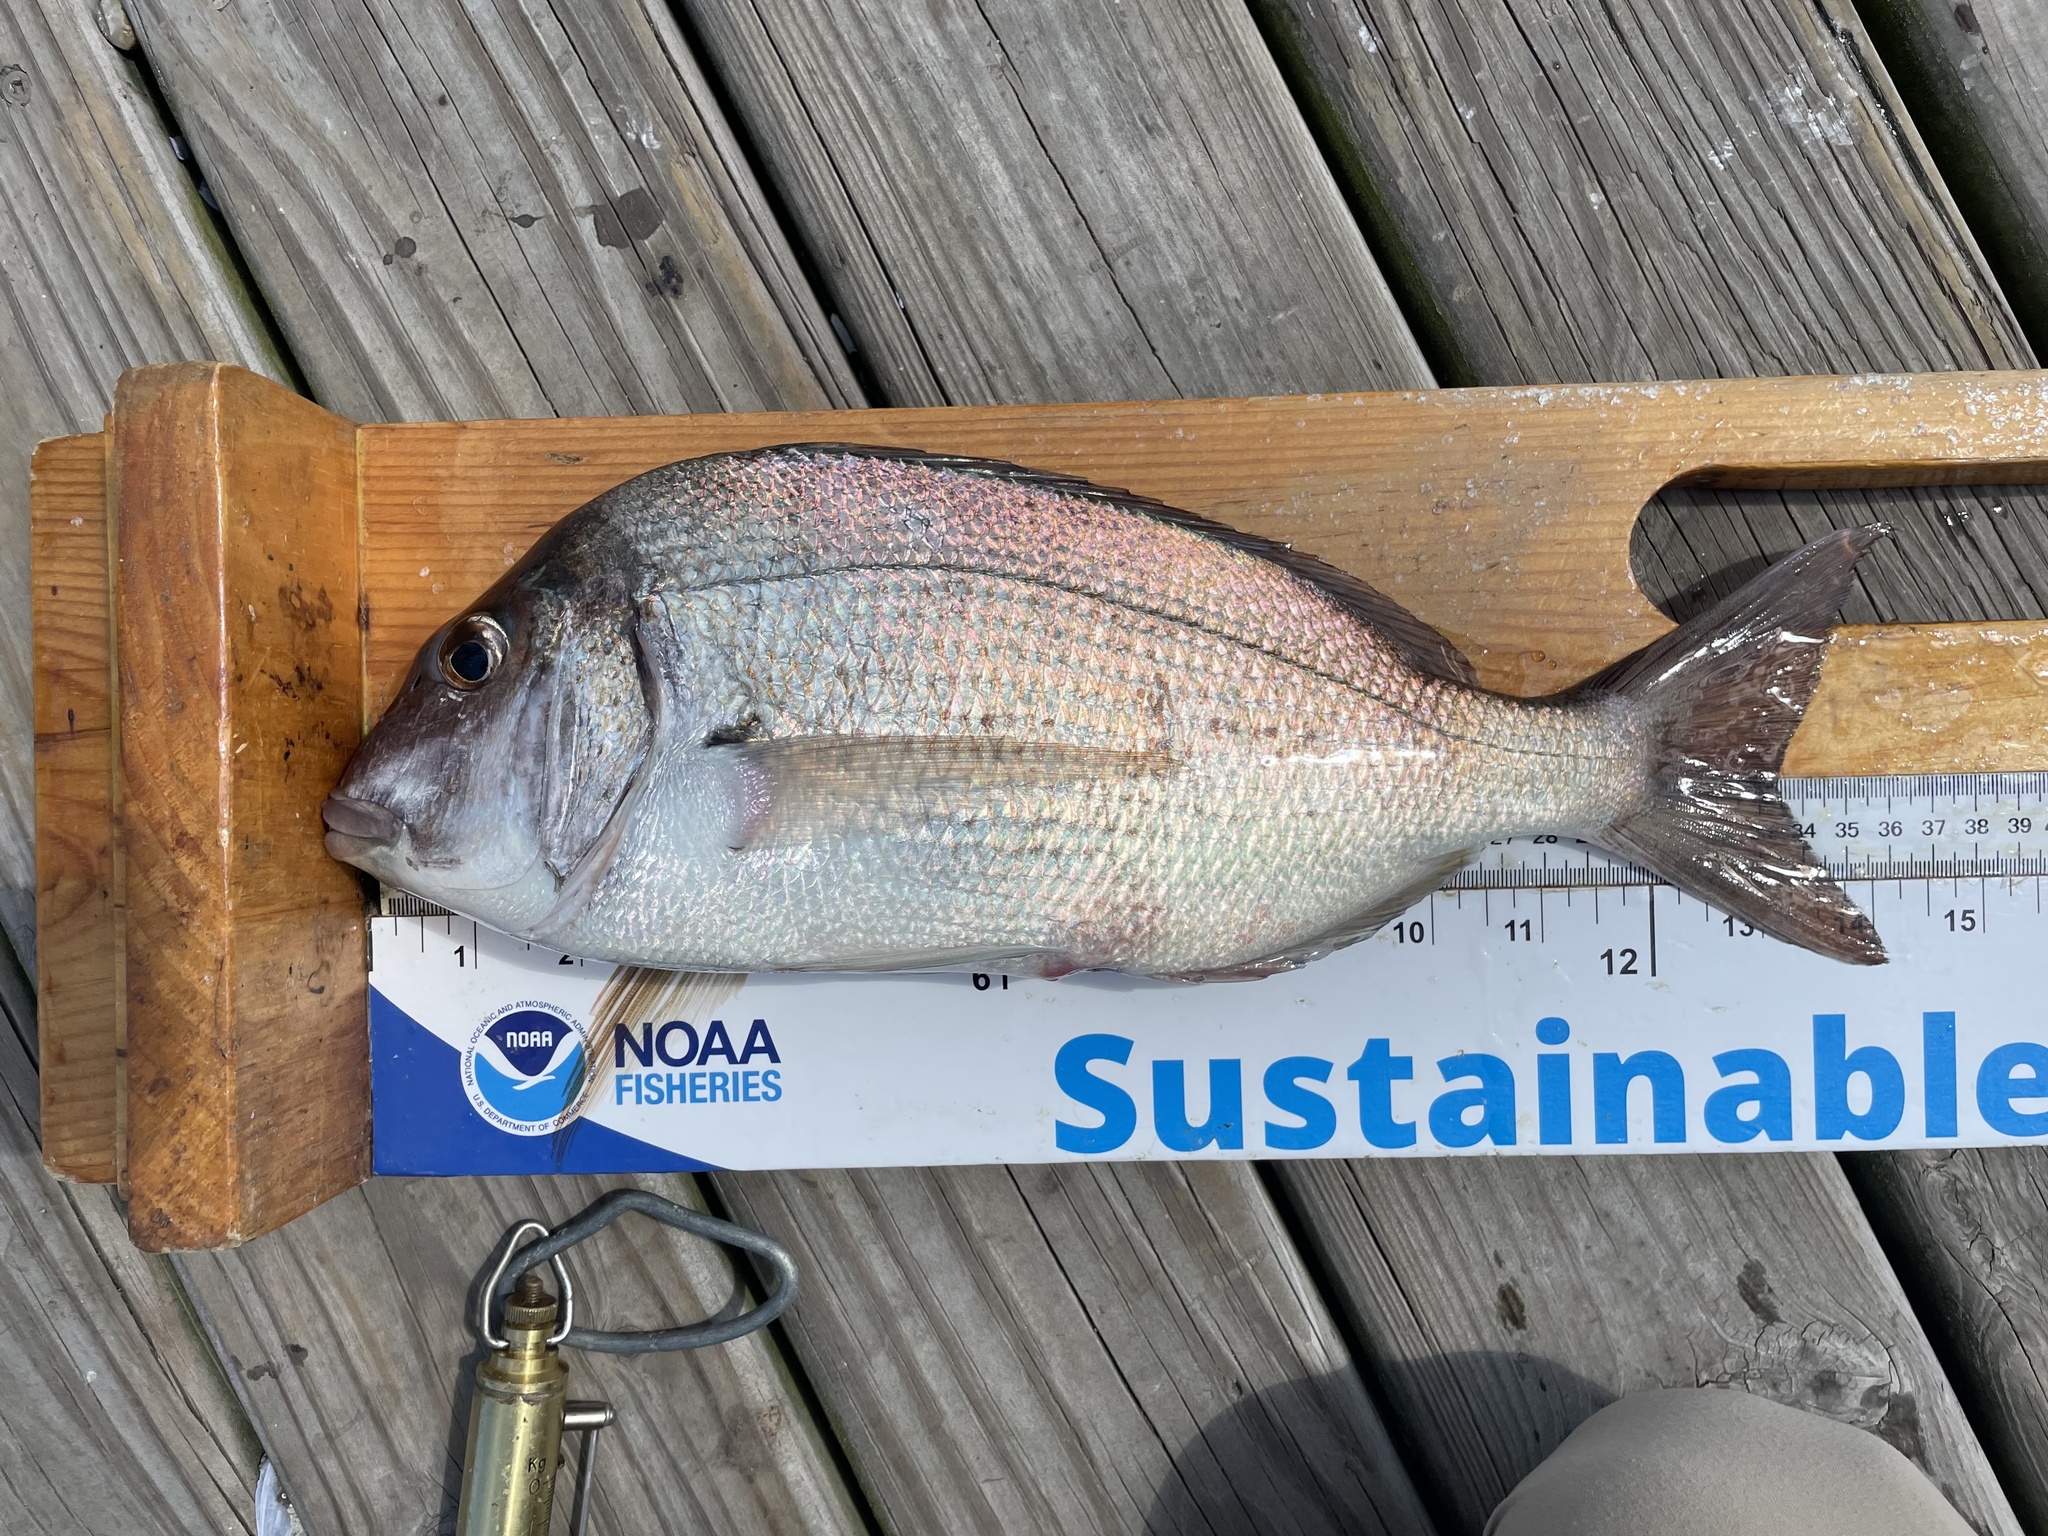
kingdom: Animalia
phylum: Chordata
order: Perciformes
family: Sparidae
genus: Stenotomus
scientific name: Stenotomus chrysops
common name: Scup
